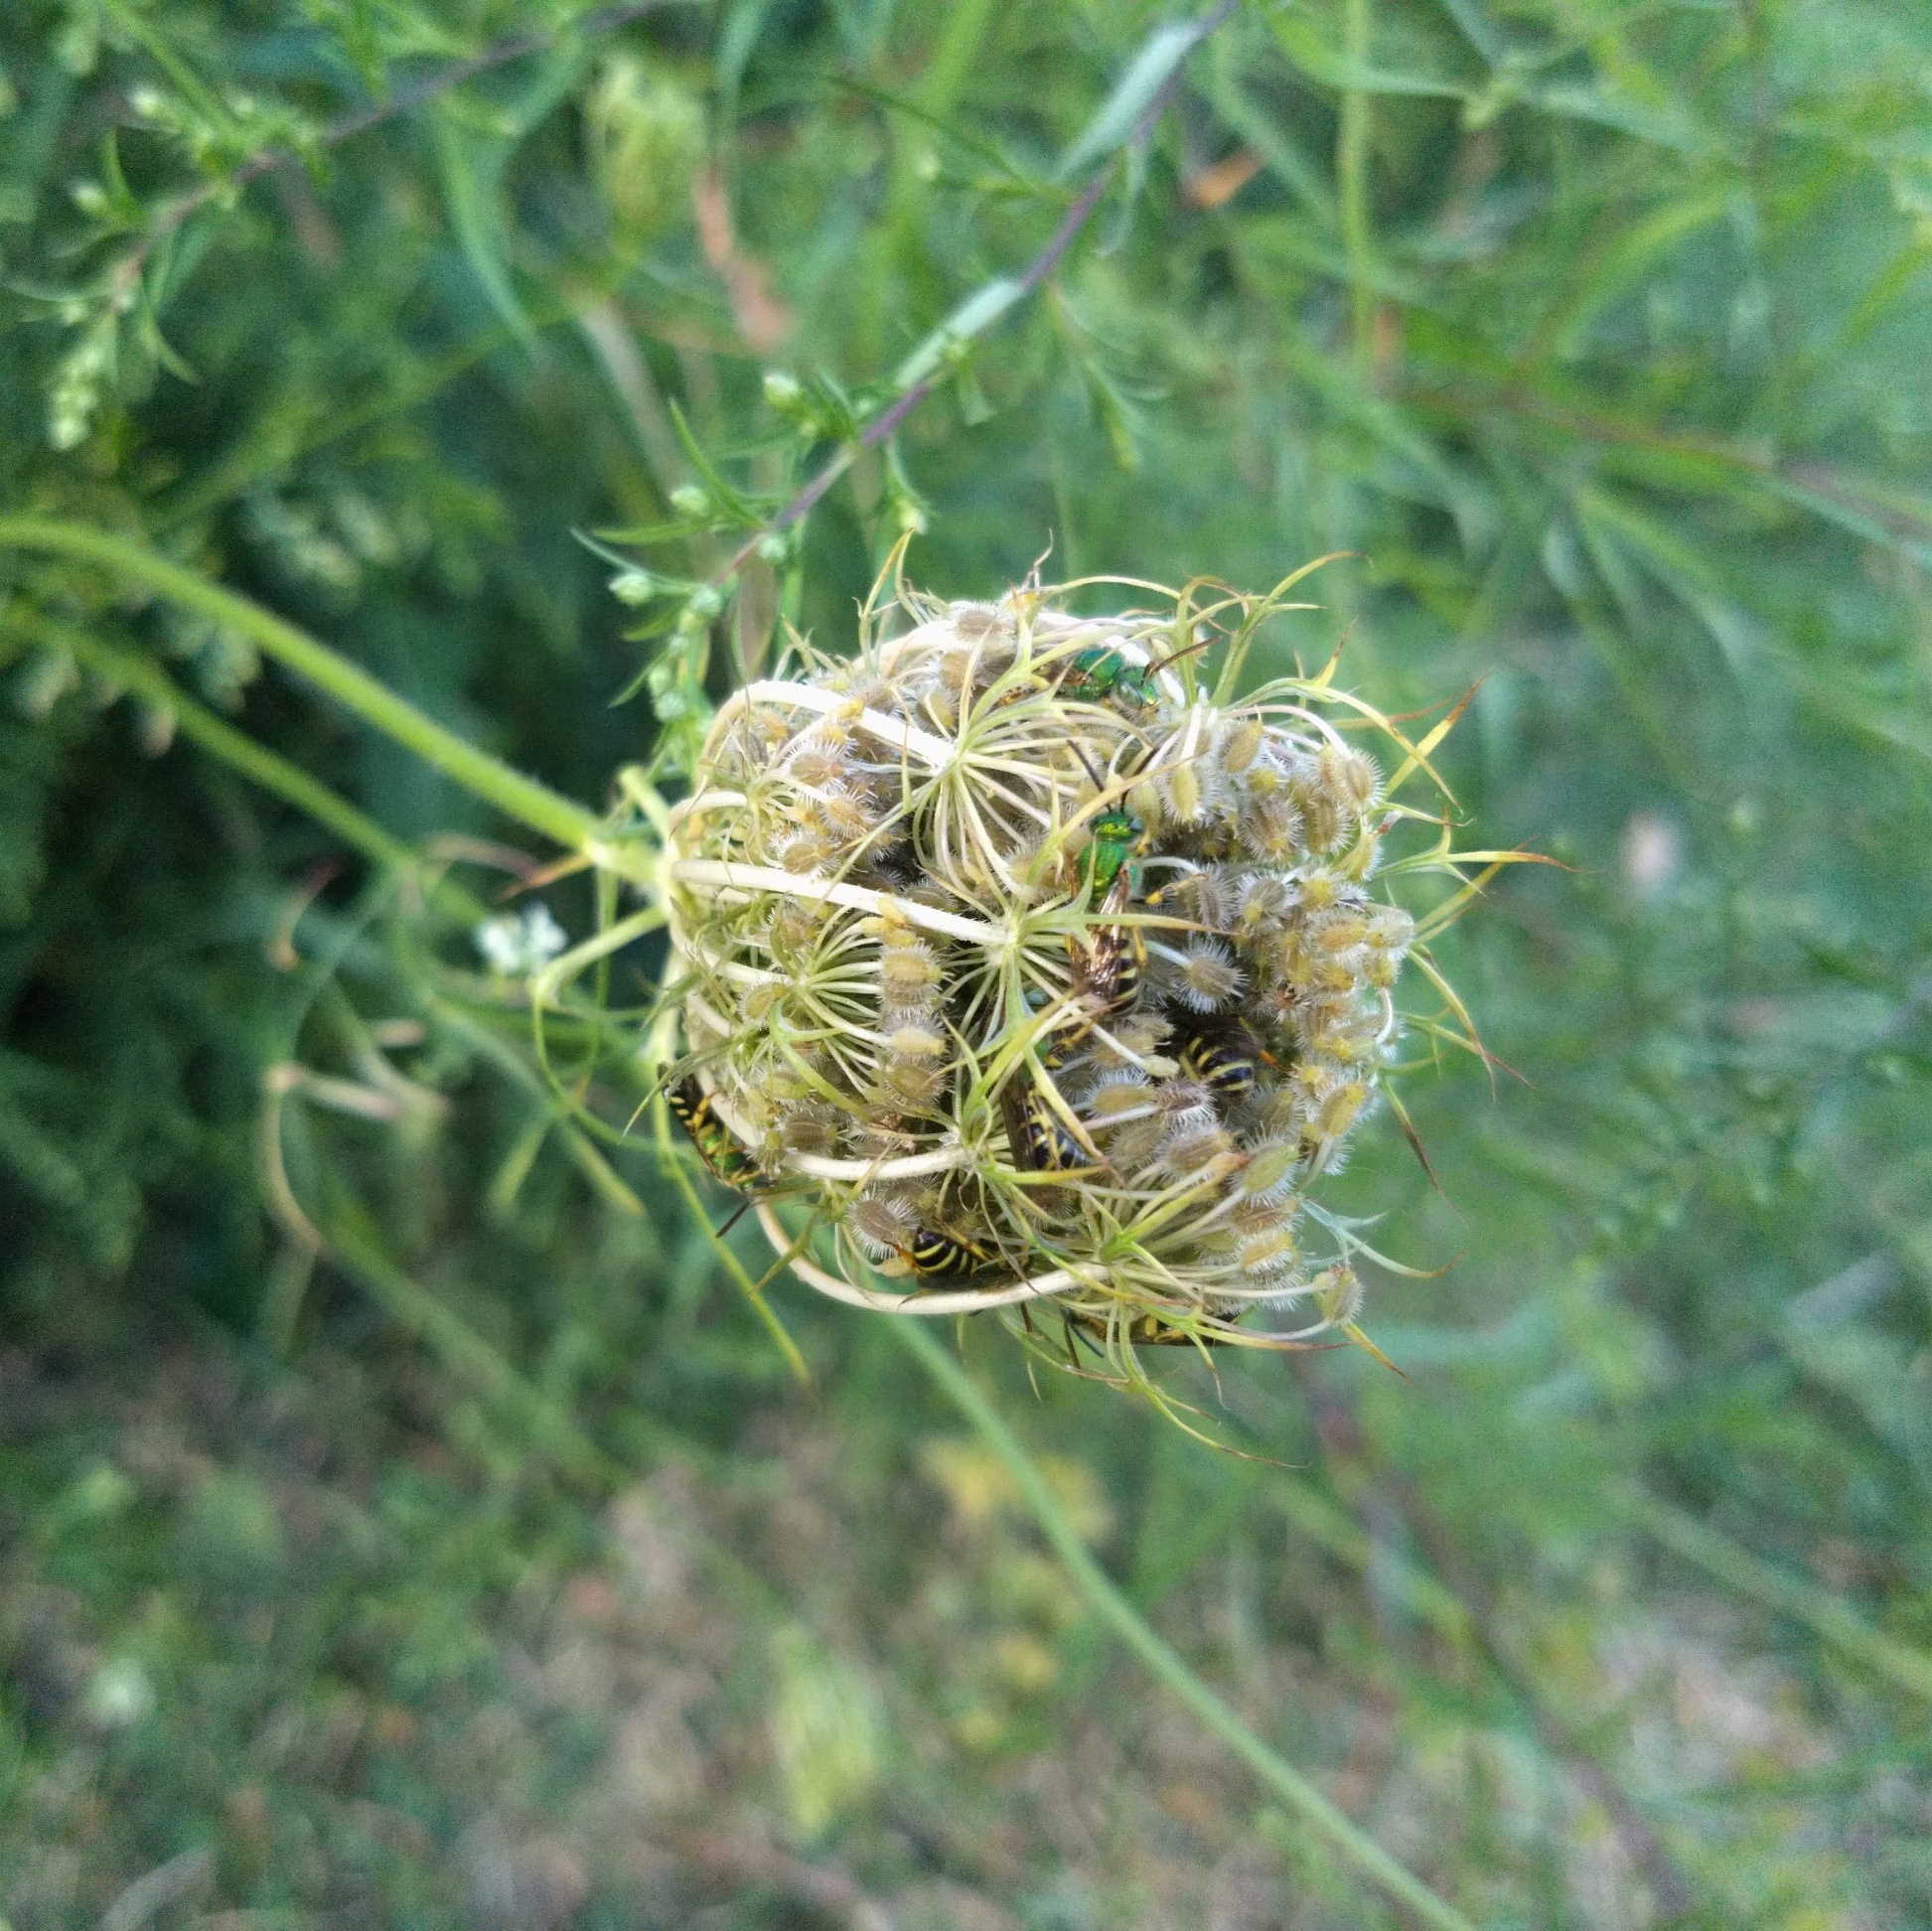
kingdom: Animalia
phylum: Arthropoda
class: Insecta
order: Hymenoptera
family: Halictidae
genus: Agapostemon
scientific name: Agapostemon virescens
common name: Bicolored striped sweat bee
